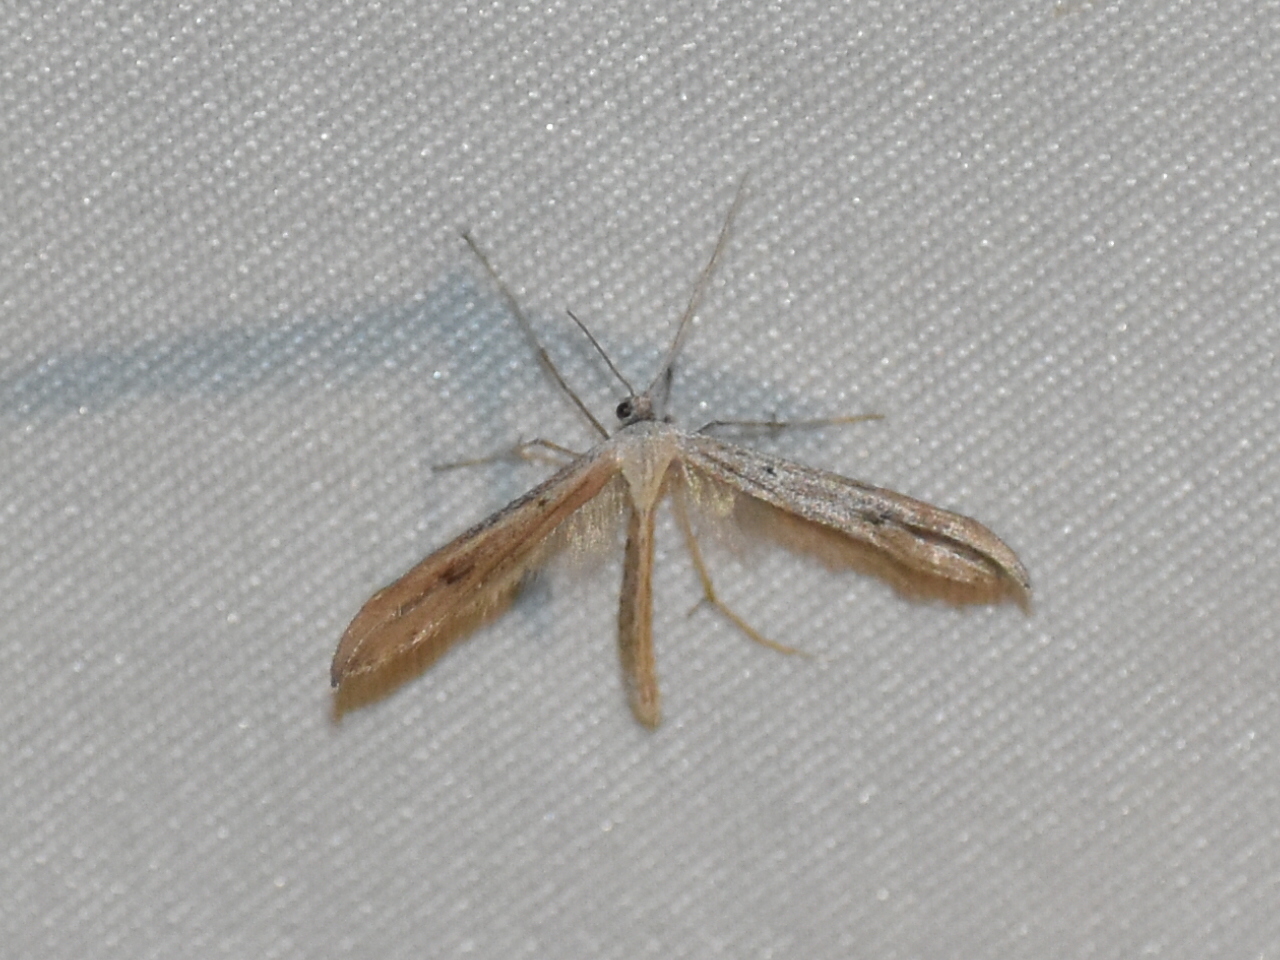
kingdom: Animalia
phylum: Arthropoda
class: Insecta
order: Lepidoptera
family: Pterophoridae
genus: Emmelina
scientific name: Emmelina monodactyla
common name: Common plume
